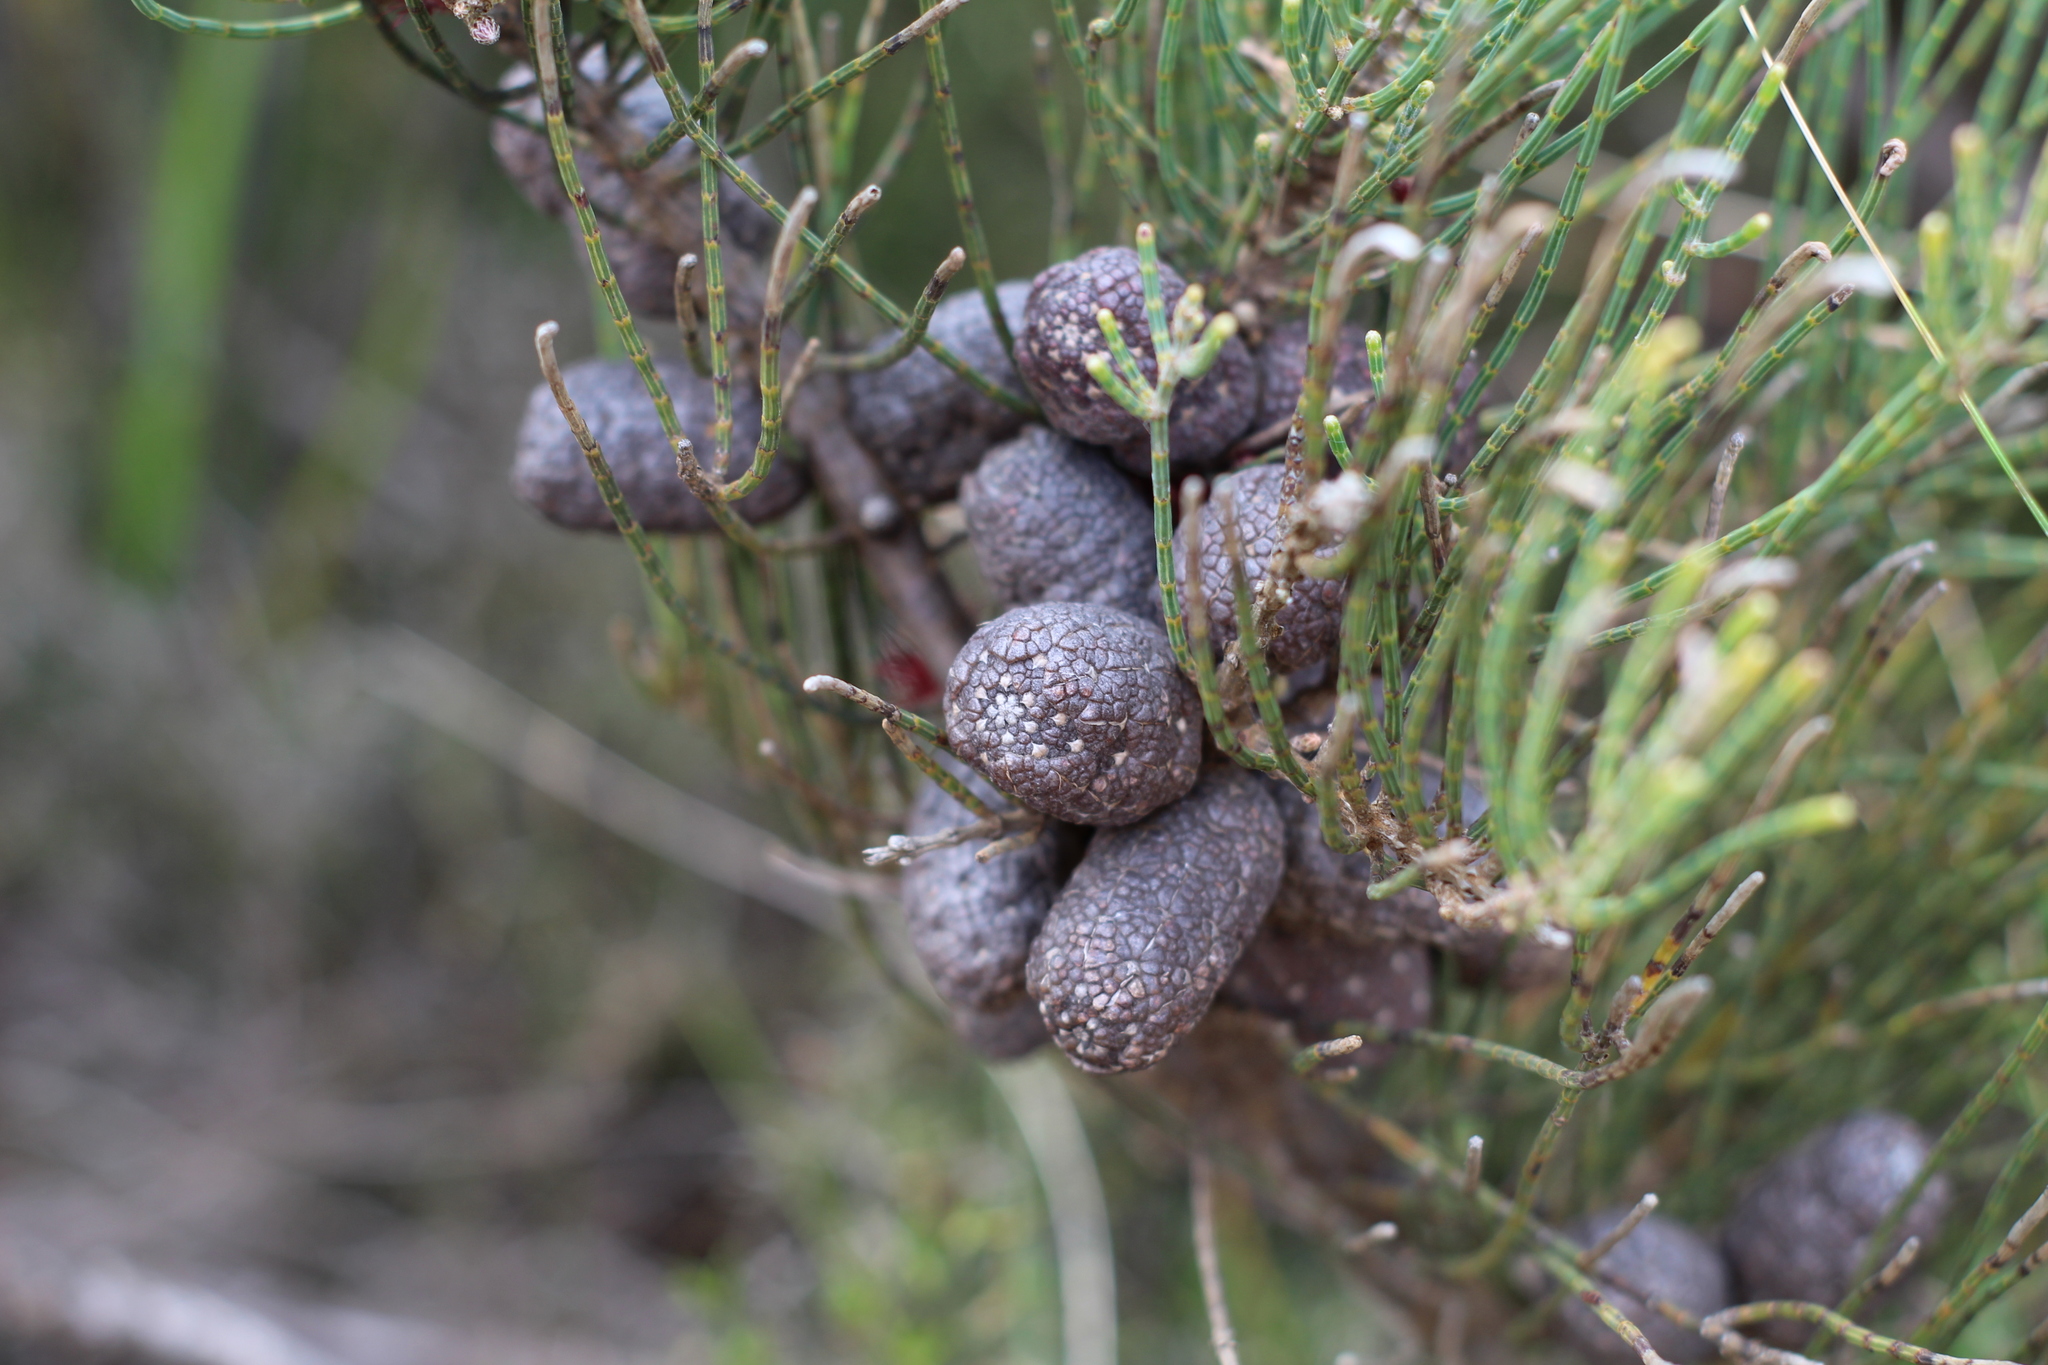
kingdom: Plantae
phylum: Tracheophyta
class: Magnoliopsida
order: Fagales
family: Casuarinaceae
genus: Allocasuarina
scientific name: Allocasuarina humilis
